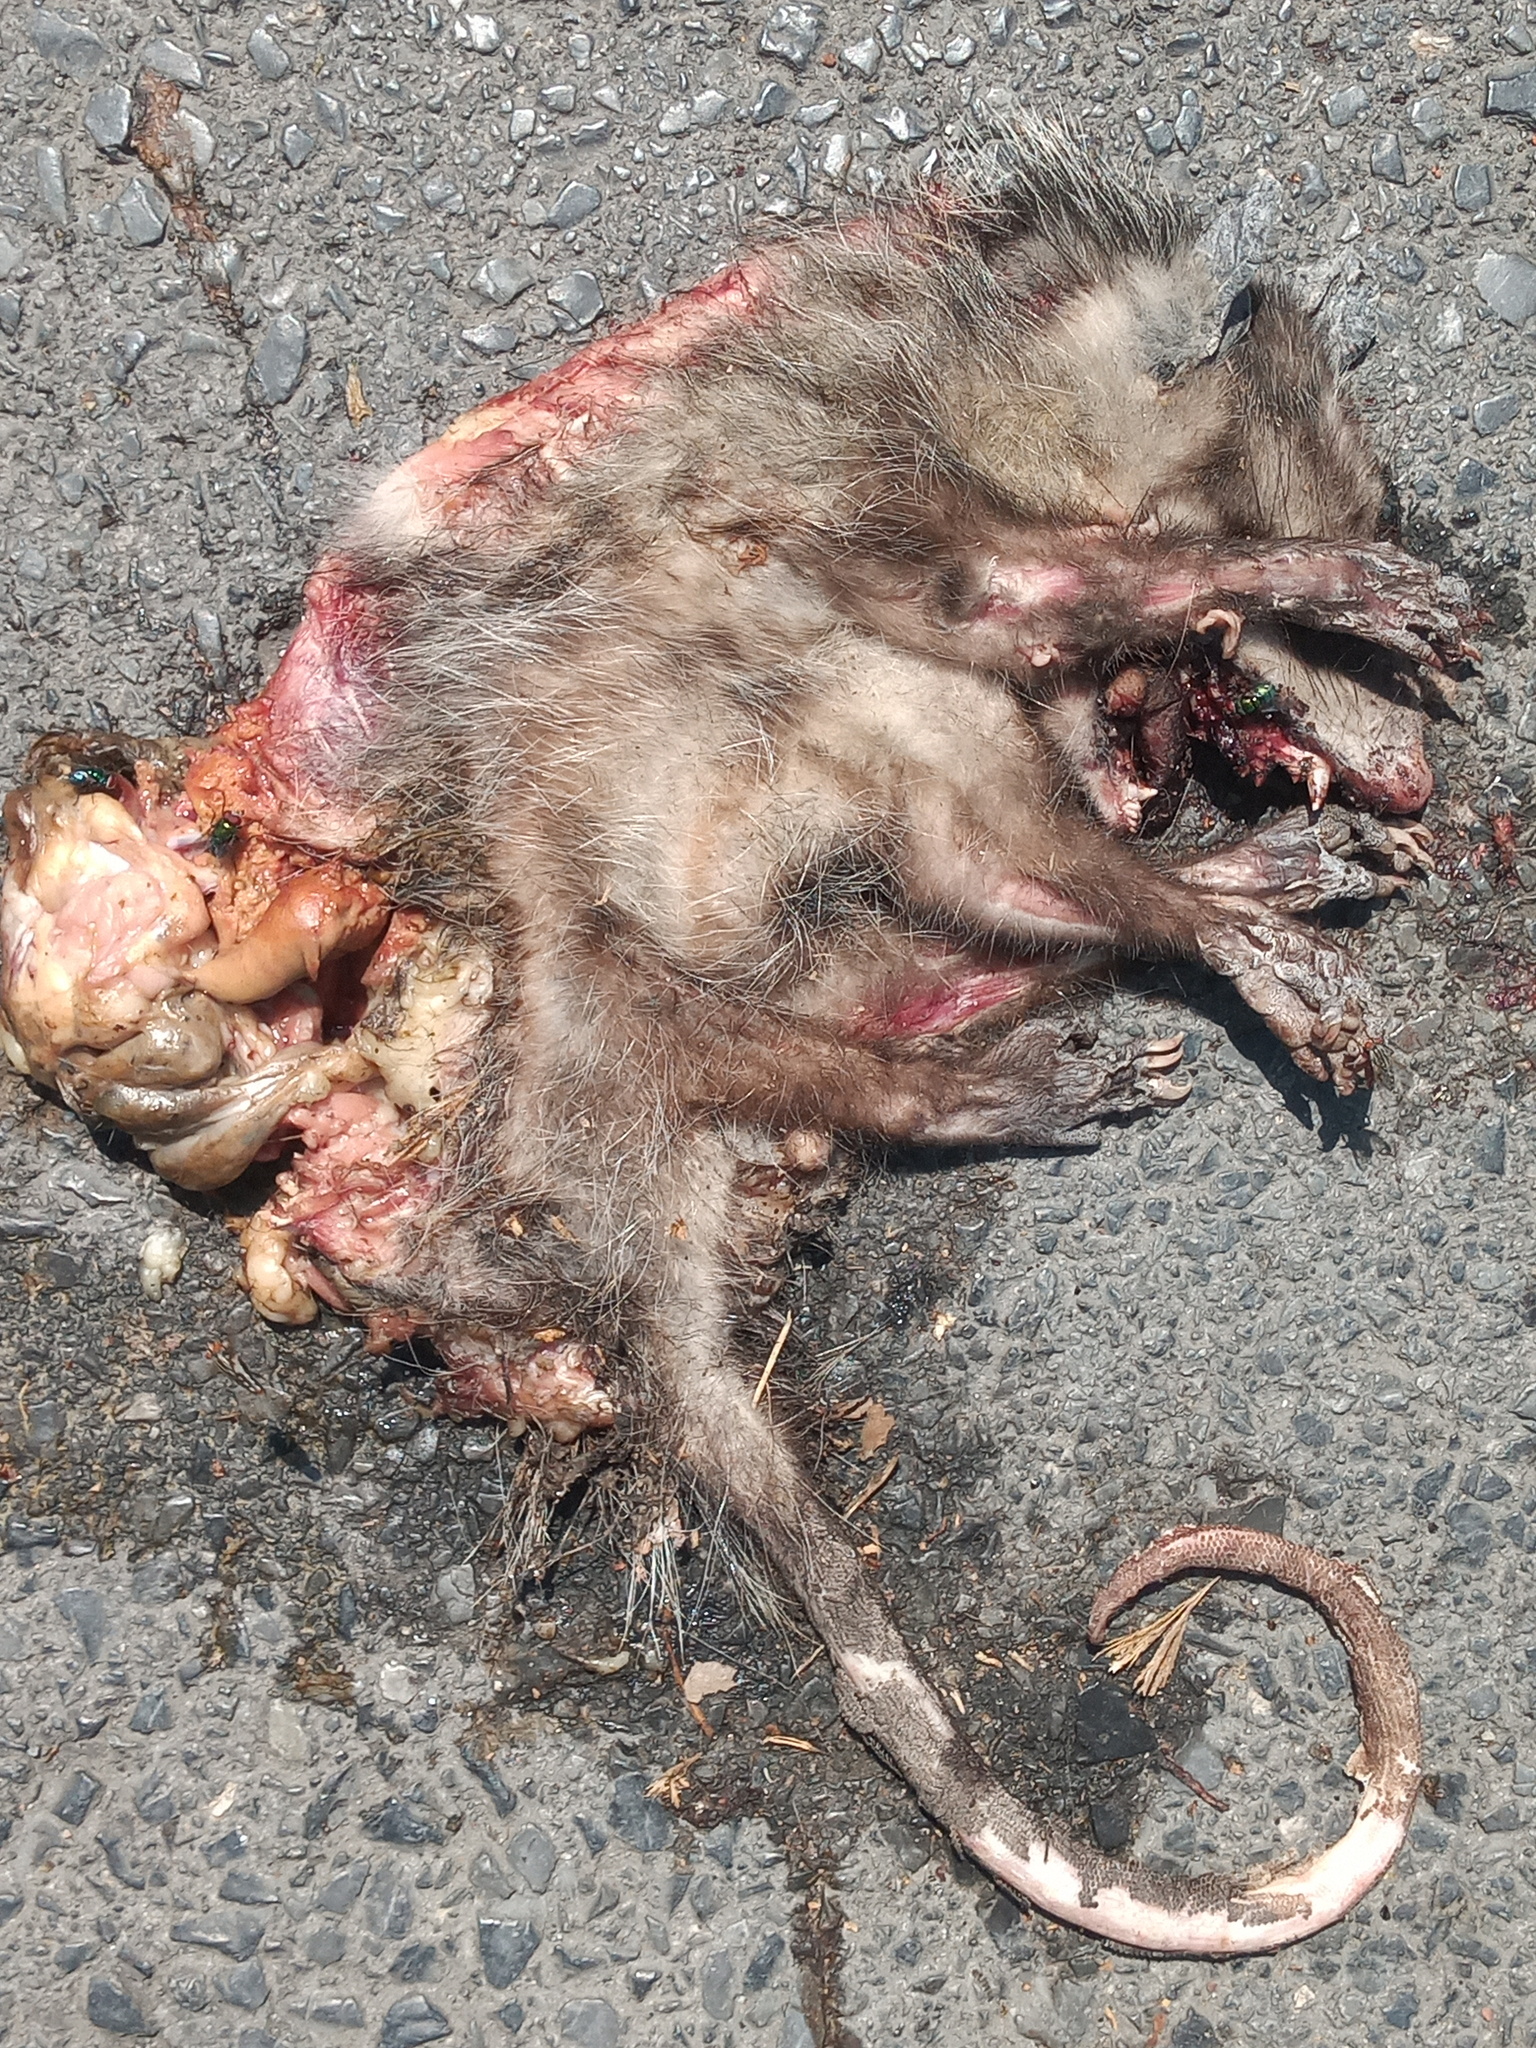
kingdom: Animalia
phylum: Chordata
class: Mammalia
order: Didelphimorphia
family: Didelphidae
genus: Didelphis
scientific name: Didelphis virginiana
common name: Virginia opossum
